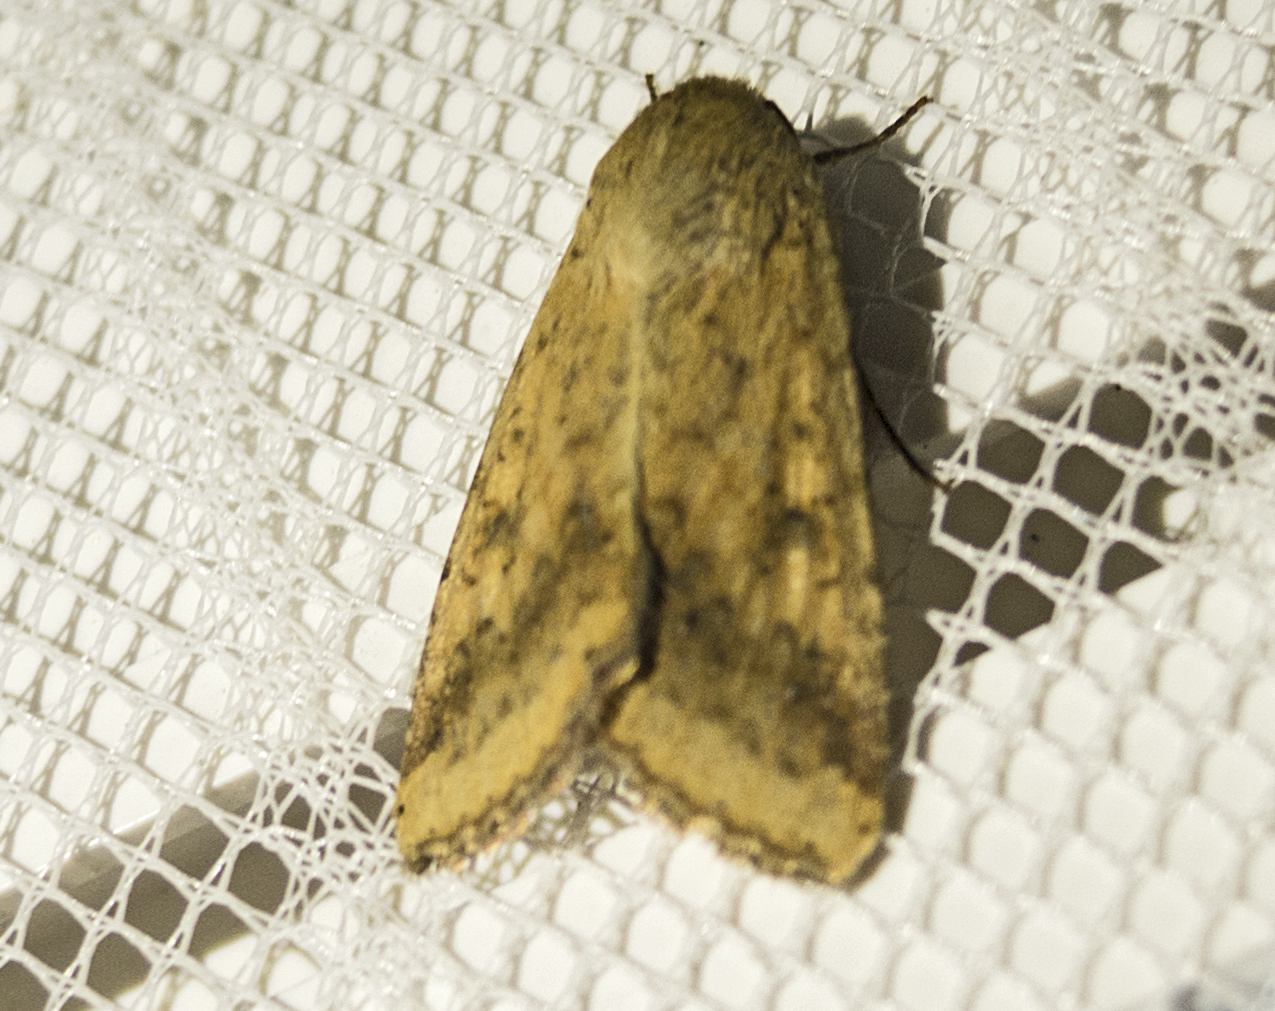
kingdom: Animalia
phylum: Arthropoda
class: Insecta
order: Lepidoptera
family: Noctuidae
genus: Helicoverpa
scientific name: Helicoverpa armigera
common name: Cotton bollworm
